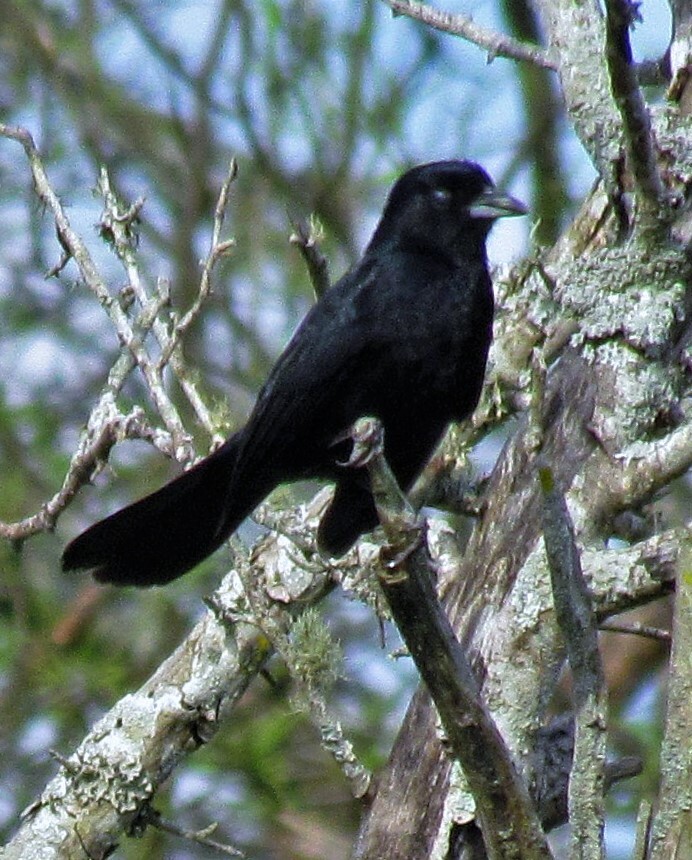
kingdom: Animalia
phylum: Chordata
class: Aves
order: Passeriformes
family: Thraupidae
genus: Tachyphonus
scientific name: Tachyphonus rufus
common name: White-lined tanager
